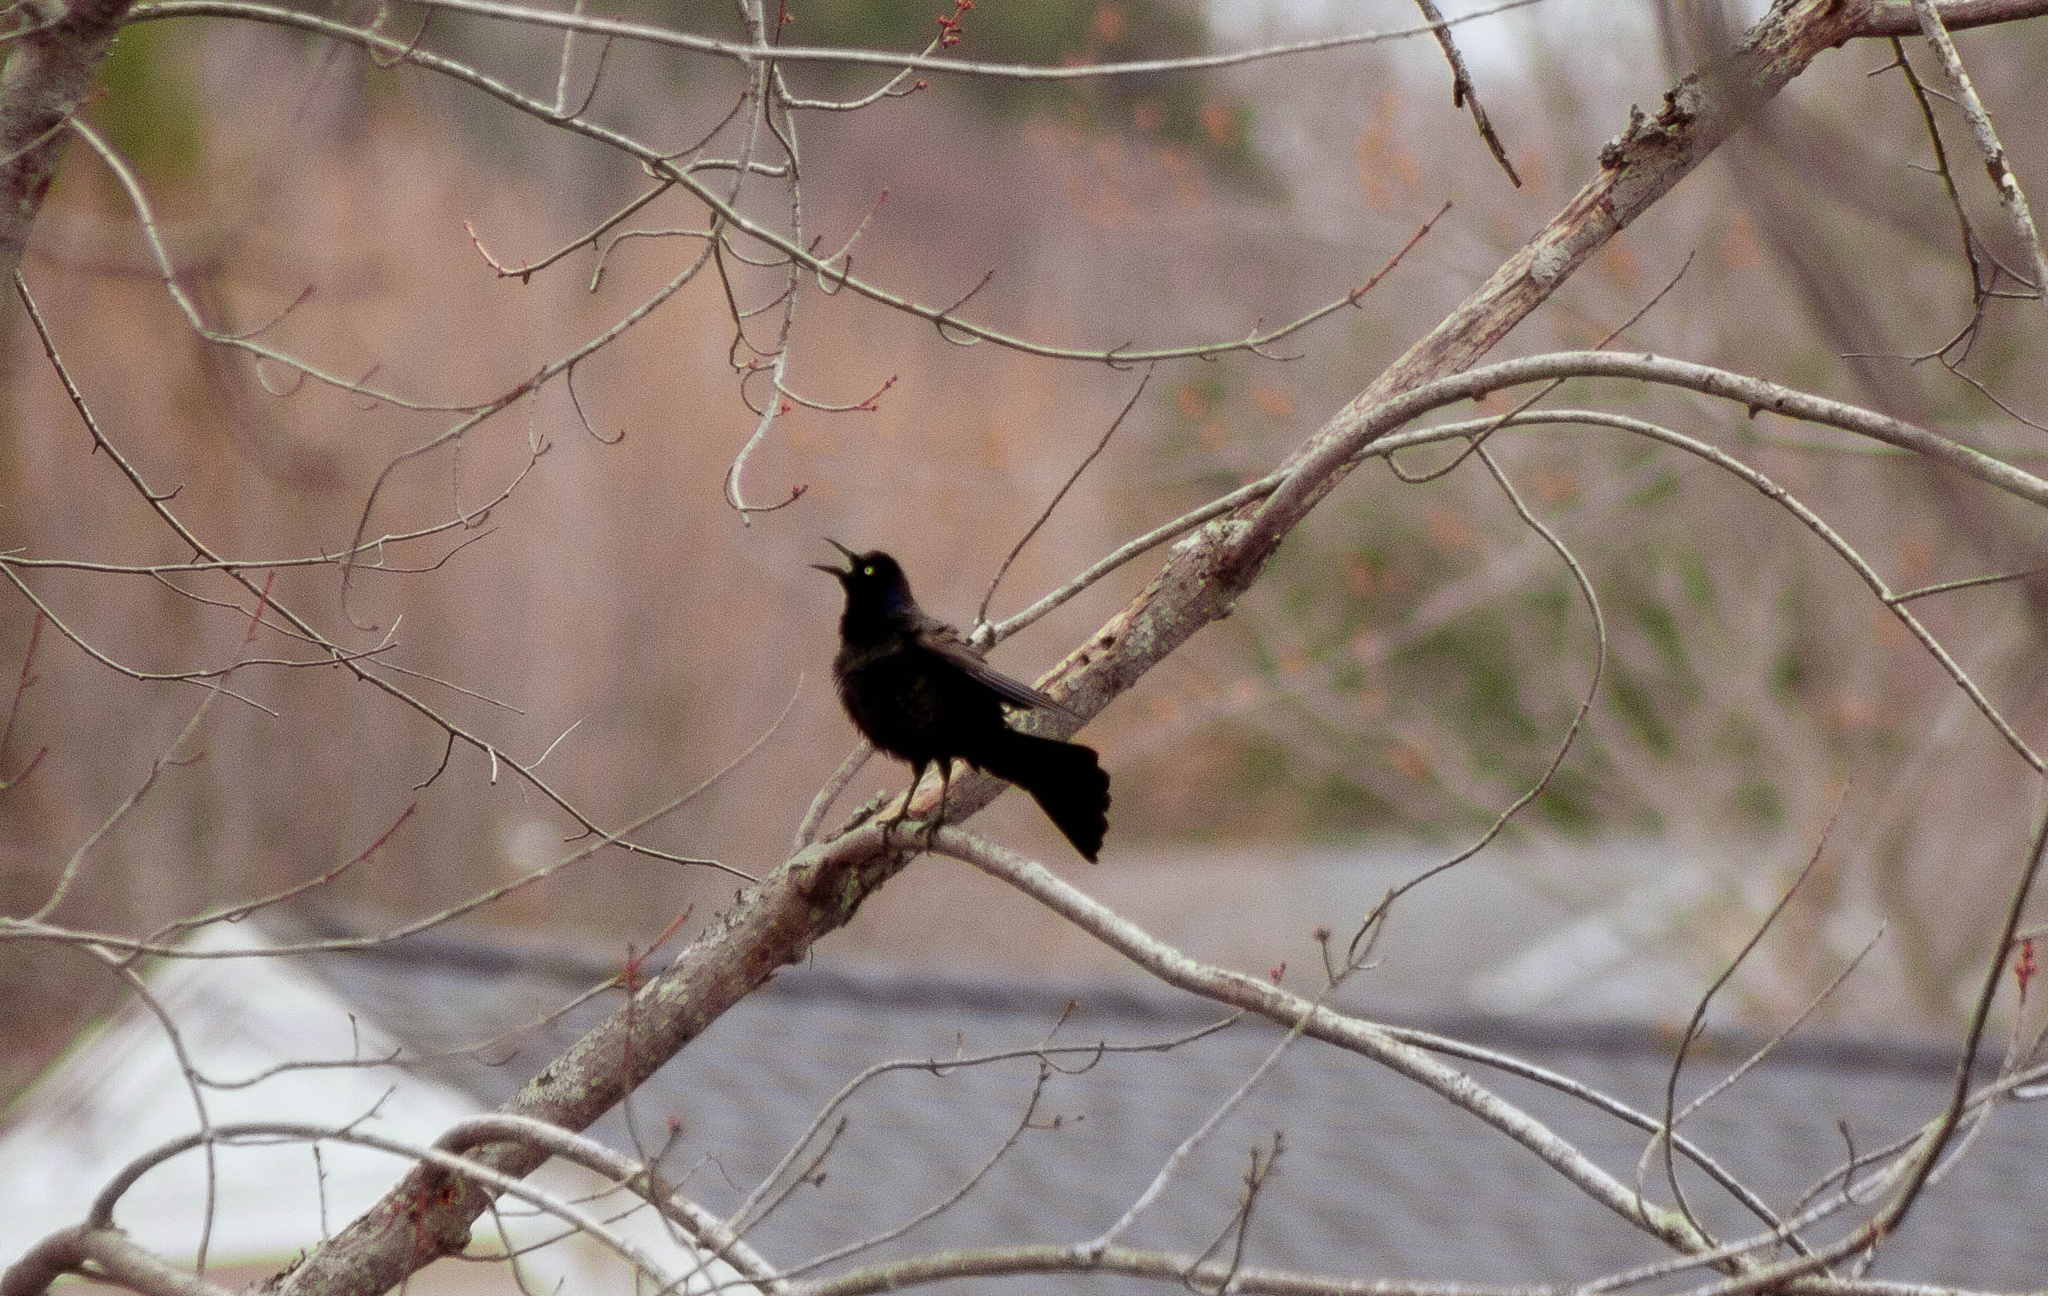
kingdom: Animalia
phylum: Chordata
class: Aves
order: Passeriformes
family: Icteridae
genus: Quiscalus
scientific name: Quiscalus quiscula
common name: Common grackle
